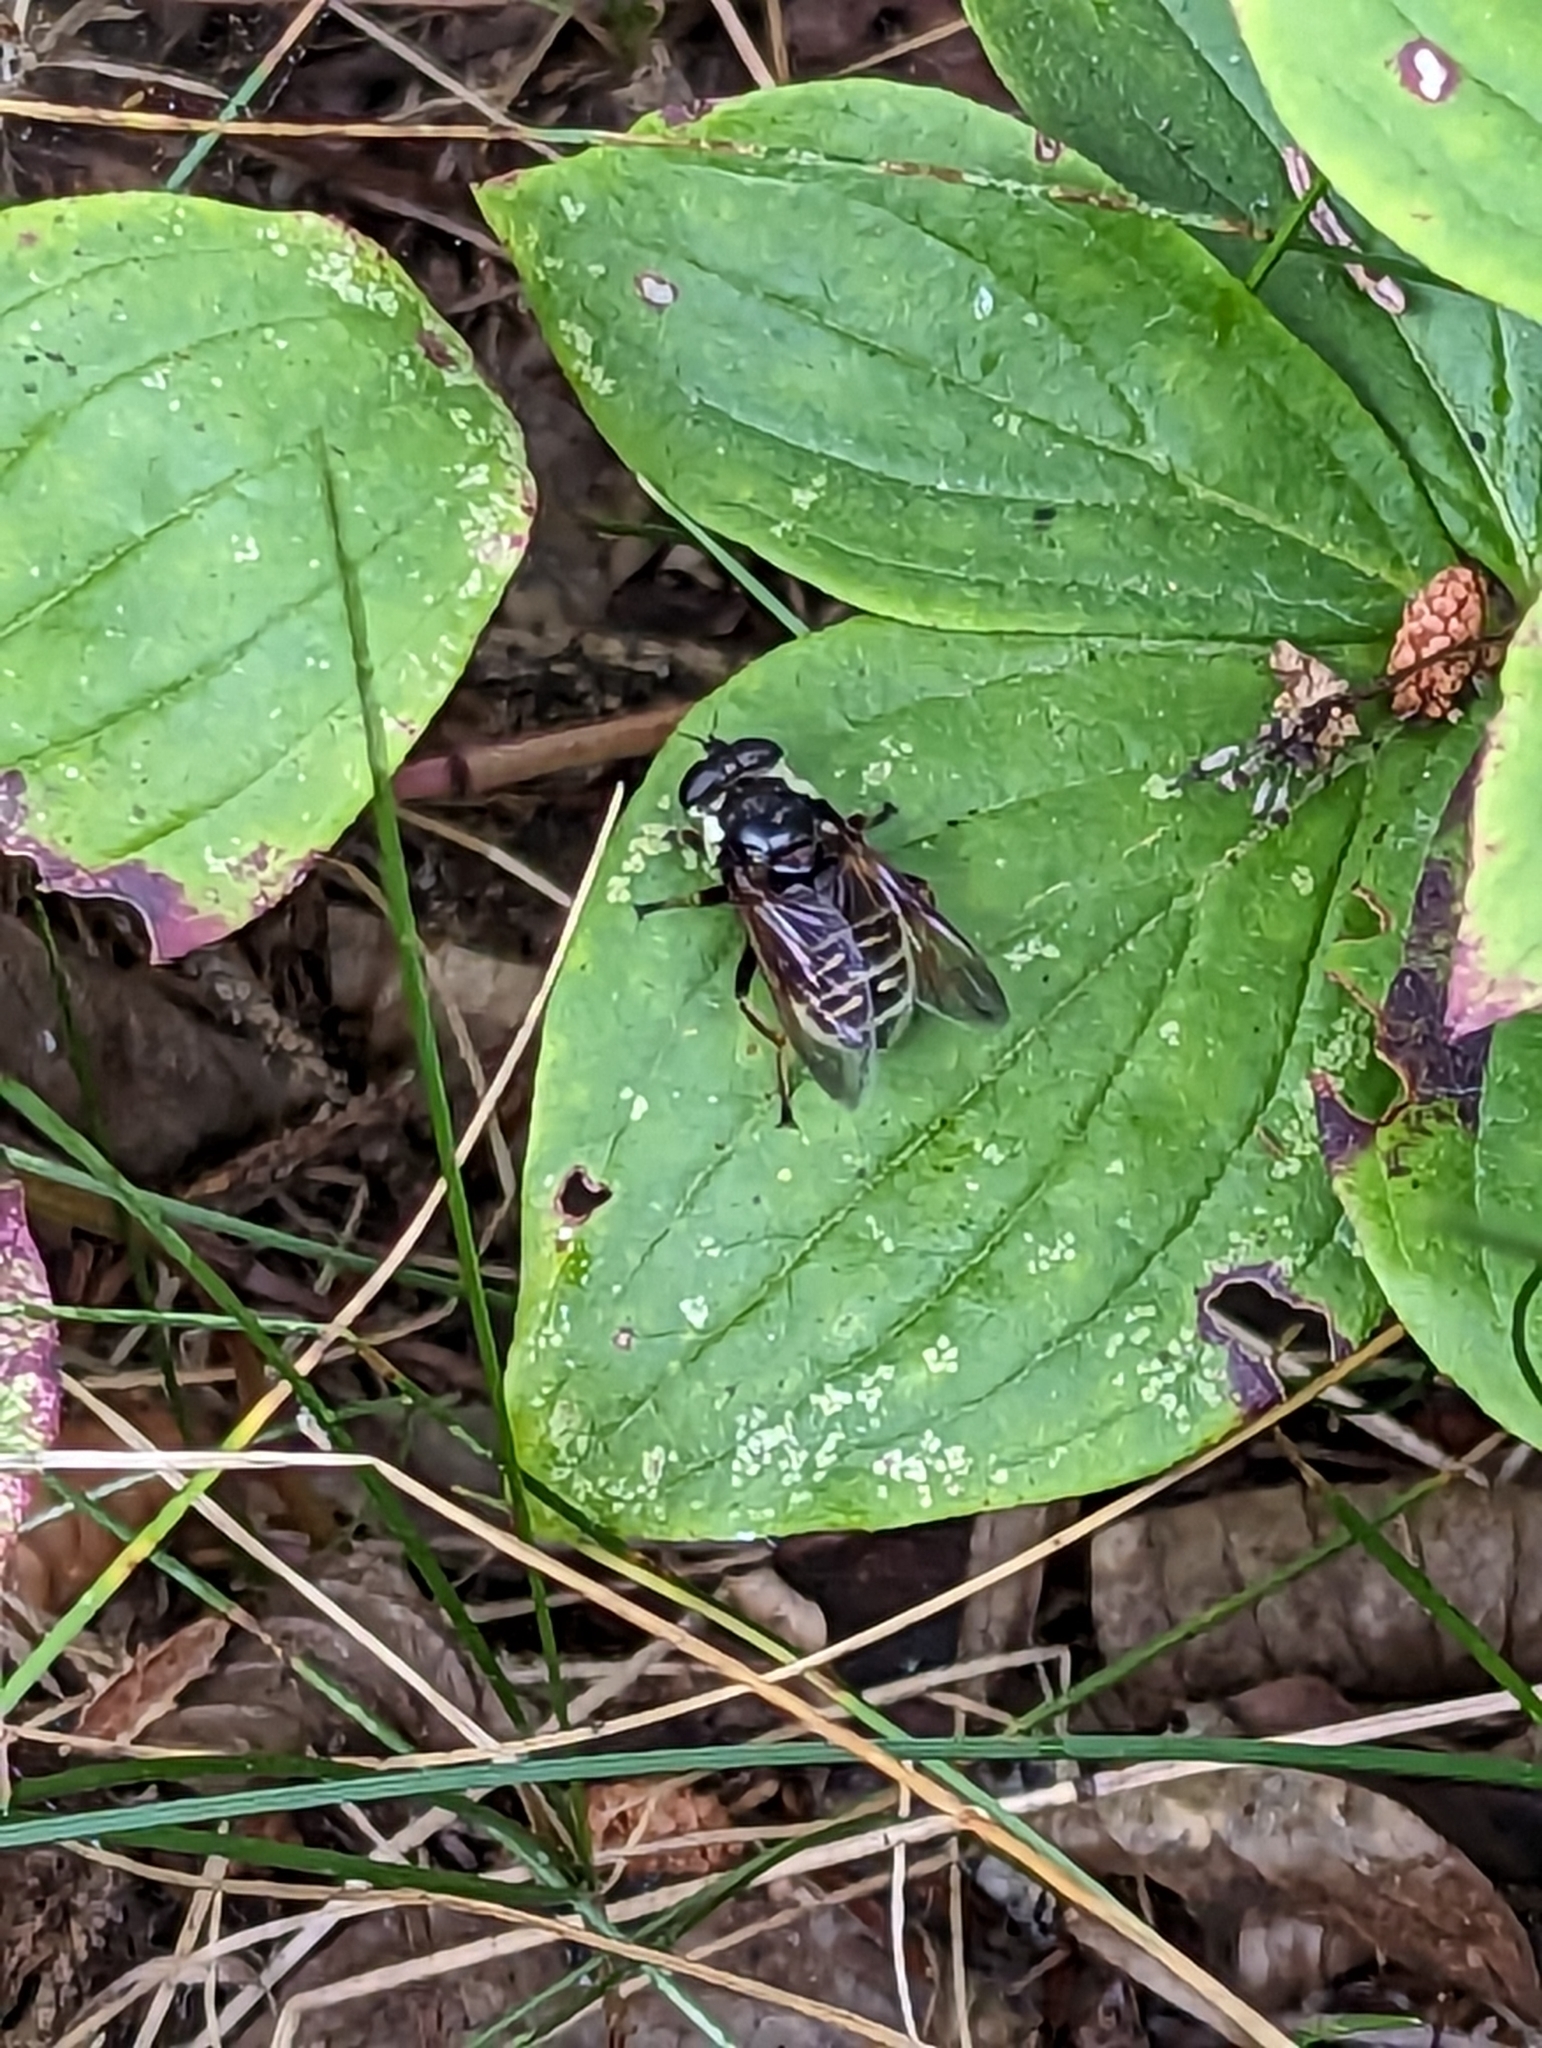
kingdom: Animalia
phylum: Arthropoda
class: Insecta
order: Diptera
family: Syrphidae
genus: Sericomyia
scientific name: Sericomyia militaris
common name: Narrow-banded pond fly
